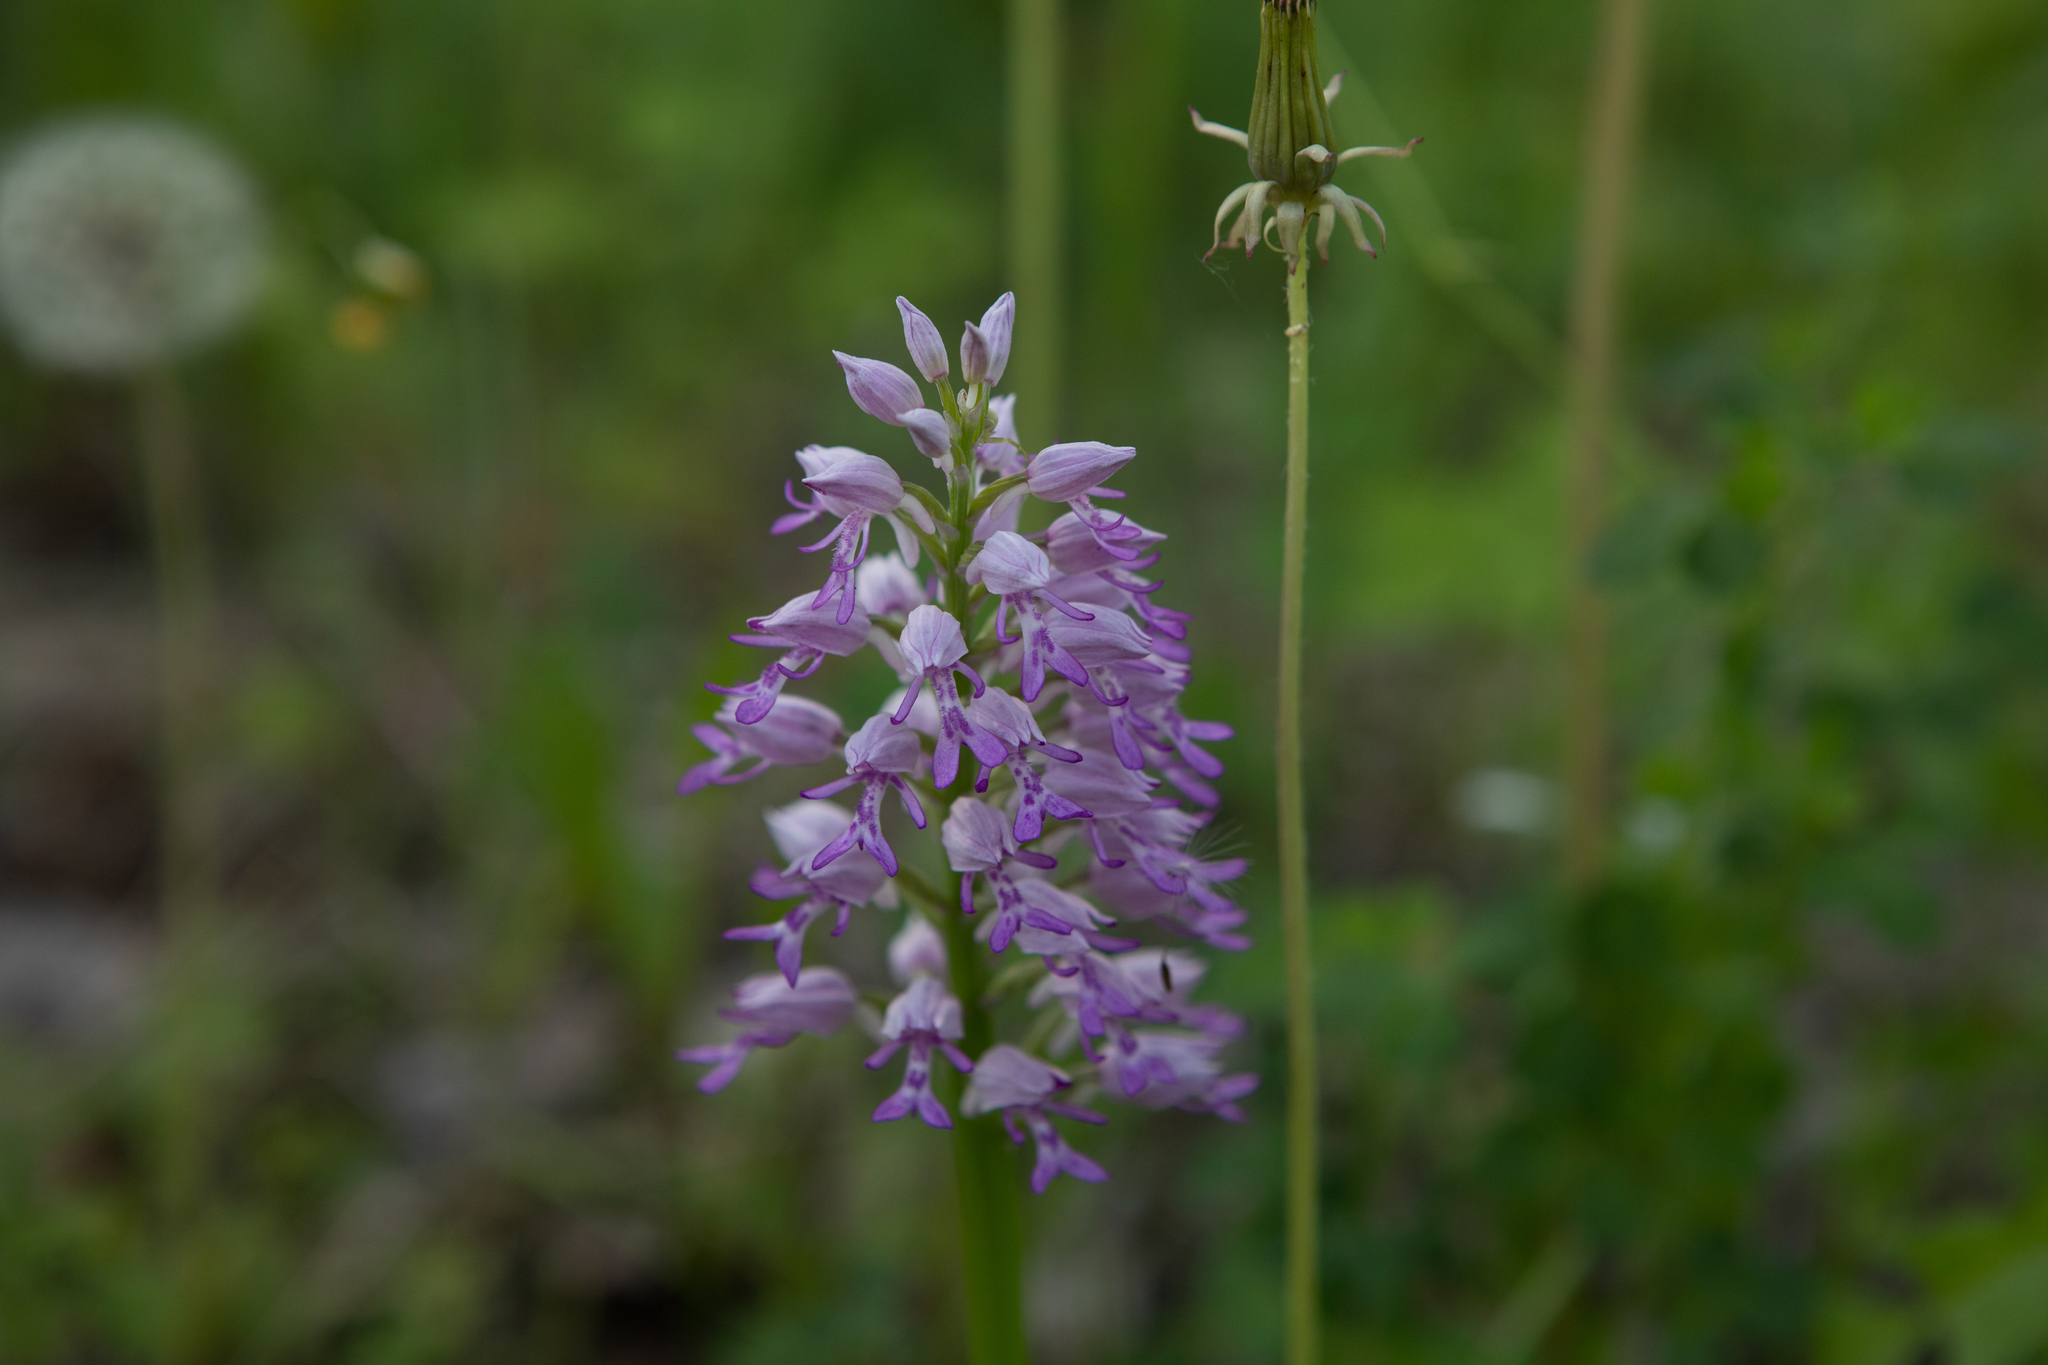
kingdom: Plantae
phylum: Tracheophyta
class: Liliopsida
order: Asparagales
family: Orchidaceae
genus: Orchis
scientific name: Orchis militaris
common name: Military orchid
